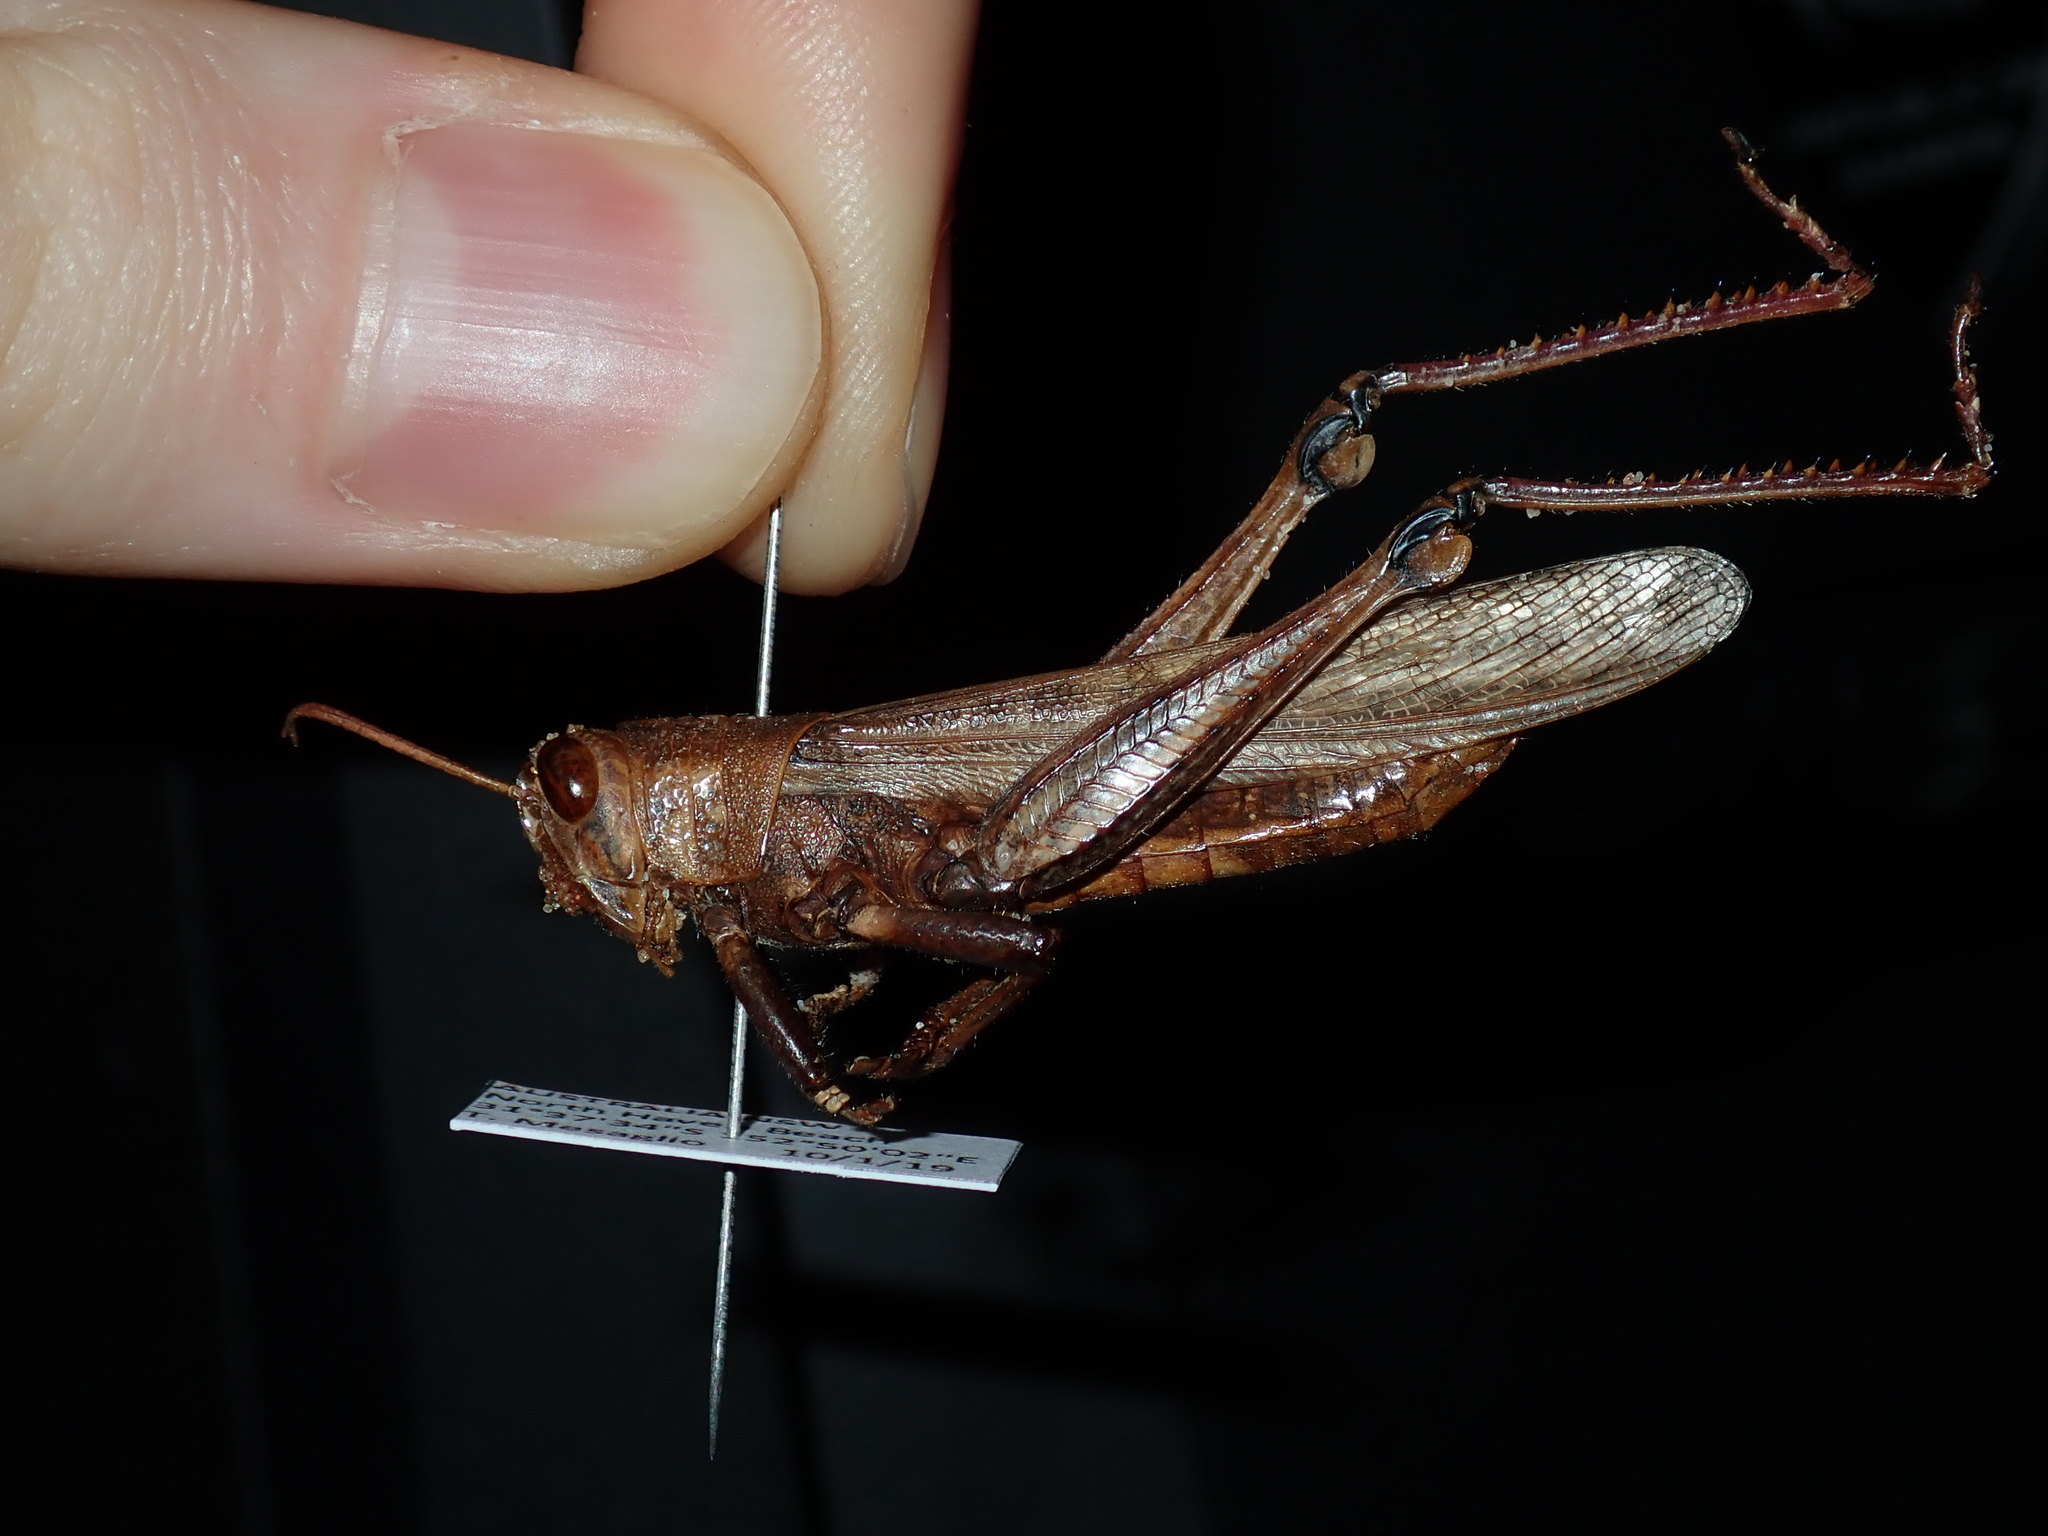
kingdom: Animalia
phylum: Arthropoda
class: Insecta
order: Orthoptera
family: Acrididae
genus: Austracris
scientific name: Austracris proxima
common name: Confusing spur-throated locust
